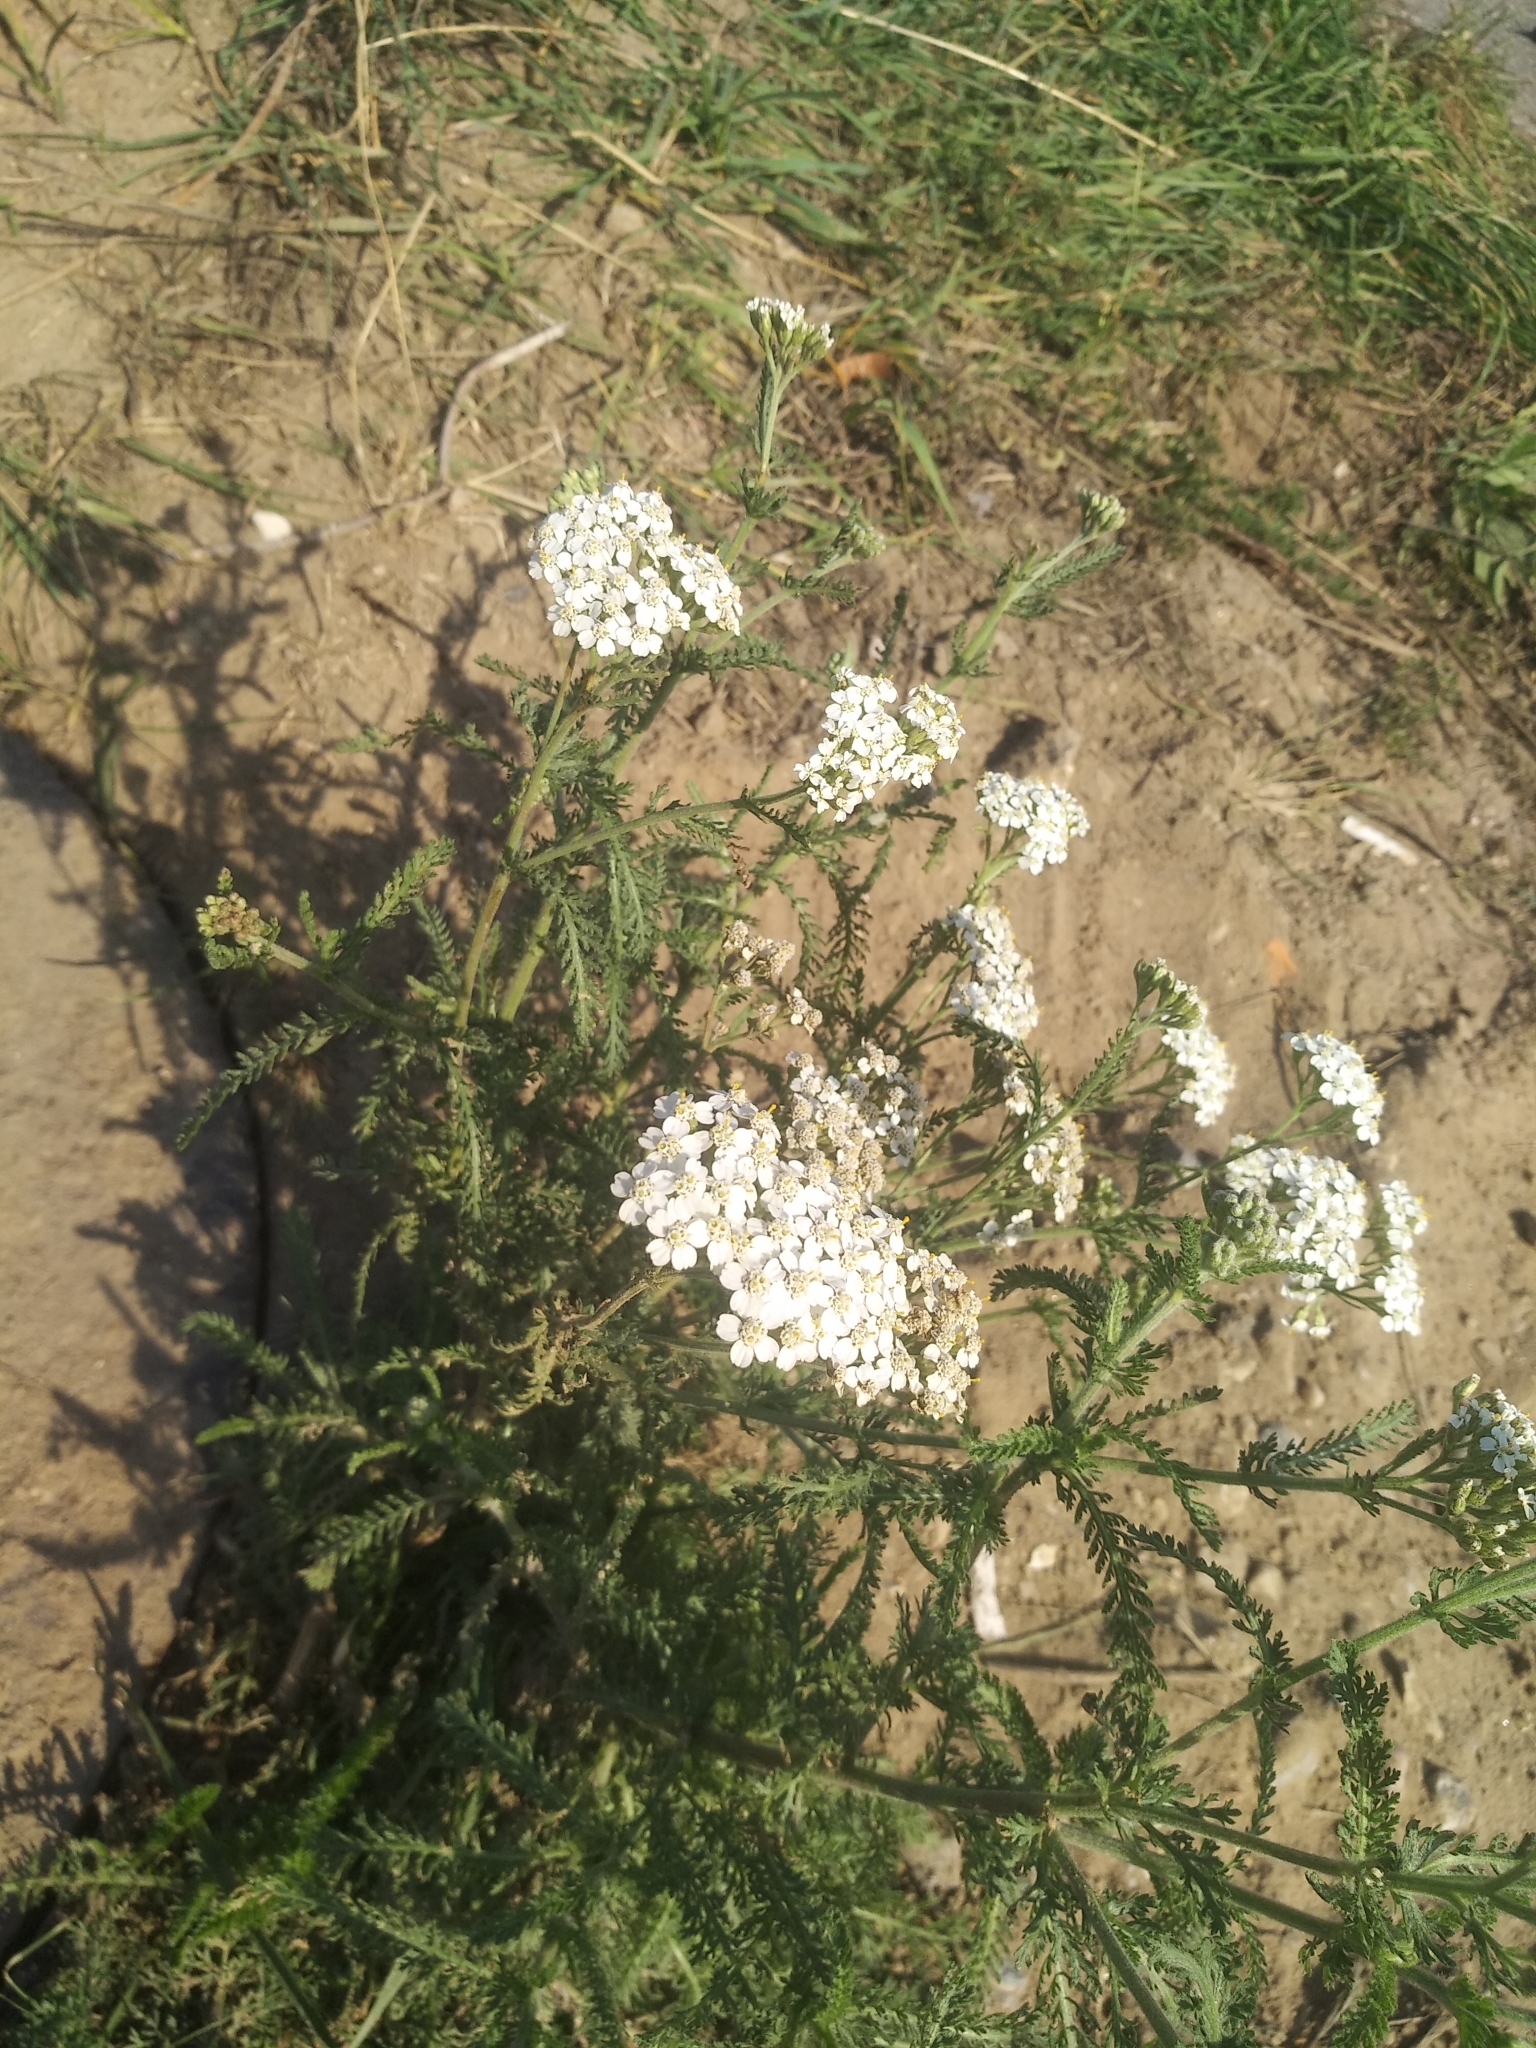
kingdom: Plantae
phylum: Tracheophyta
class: Magnoliopsida
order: Asterales
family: Asteraceae
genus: Achillea
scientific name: Achillea millefolium
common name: Yarrow
